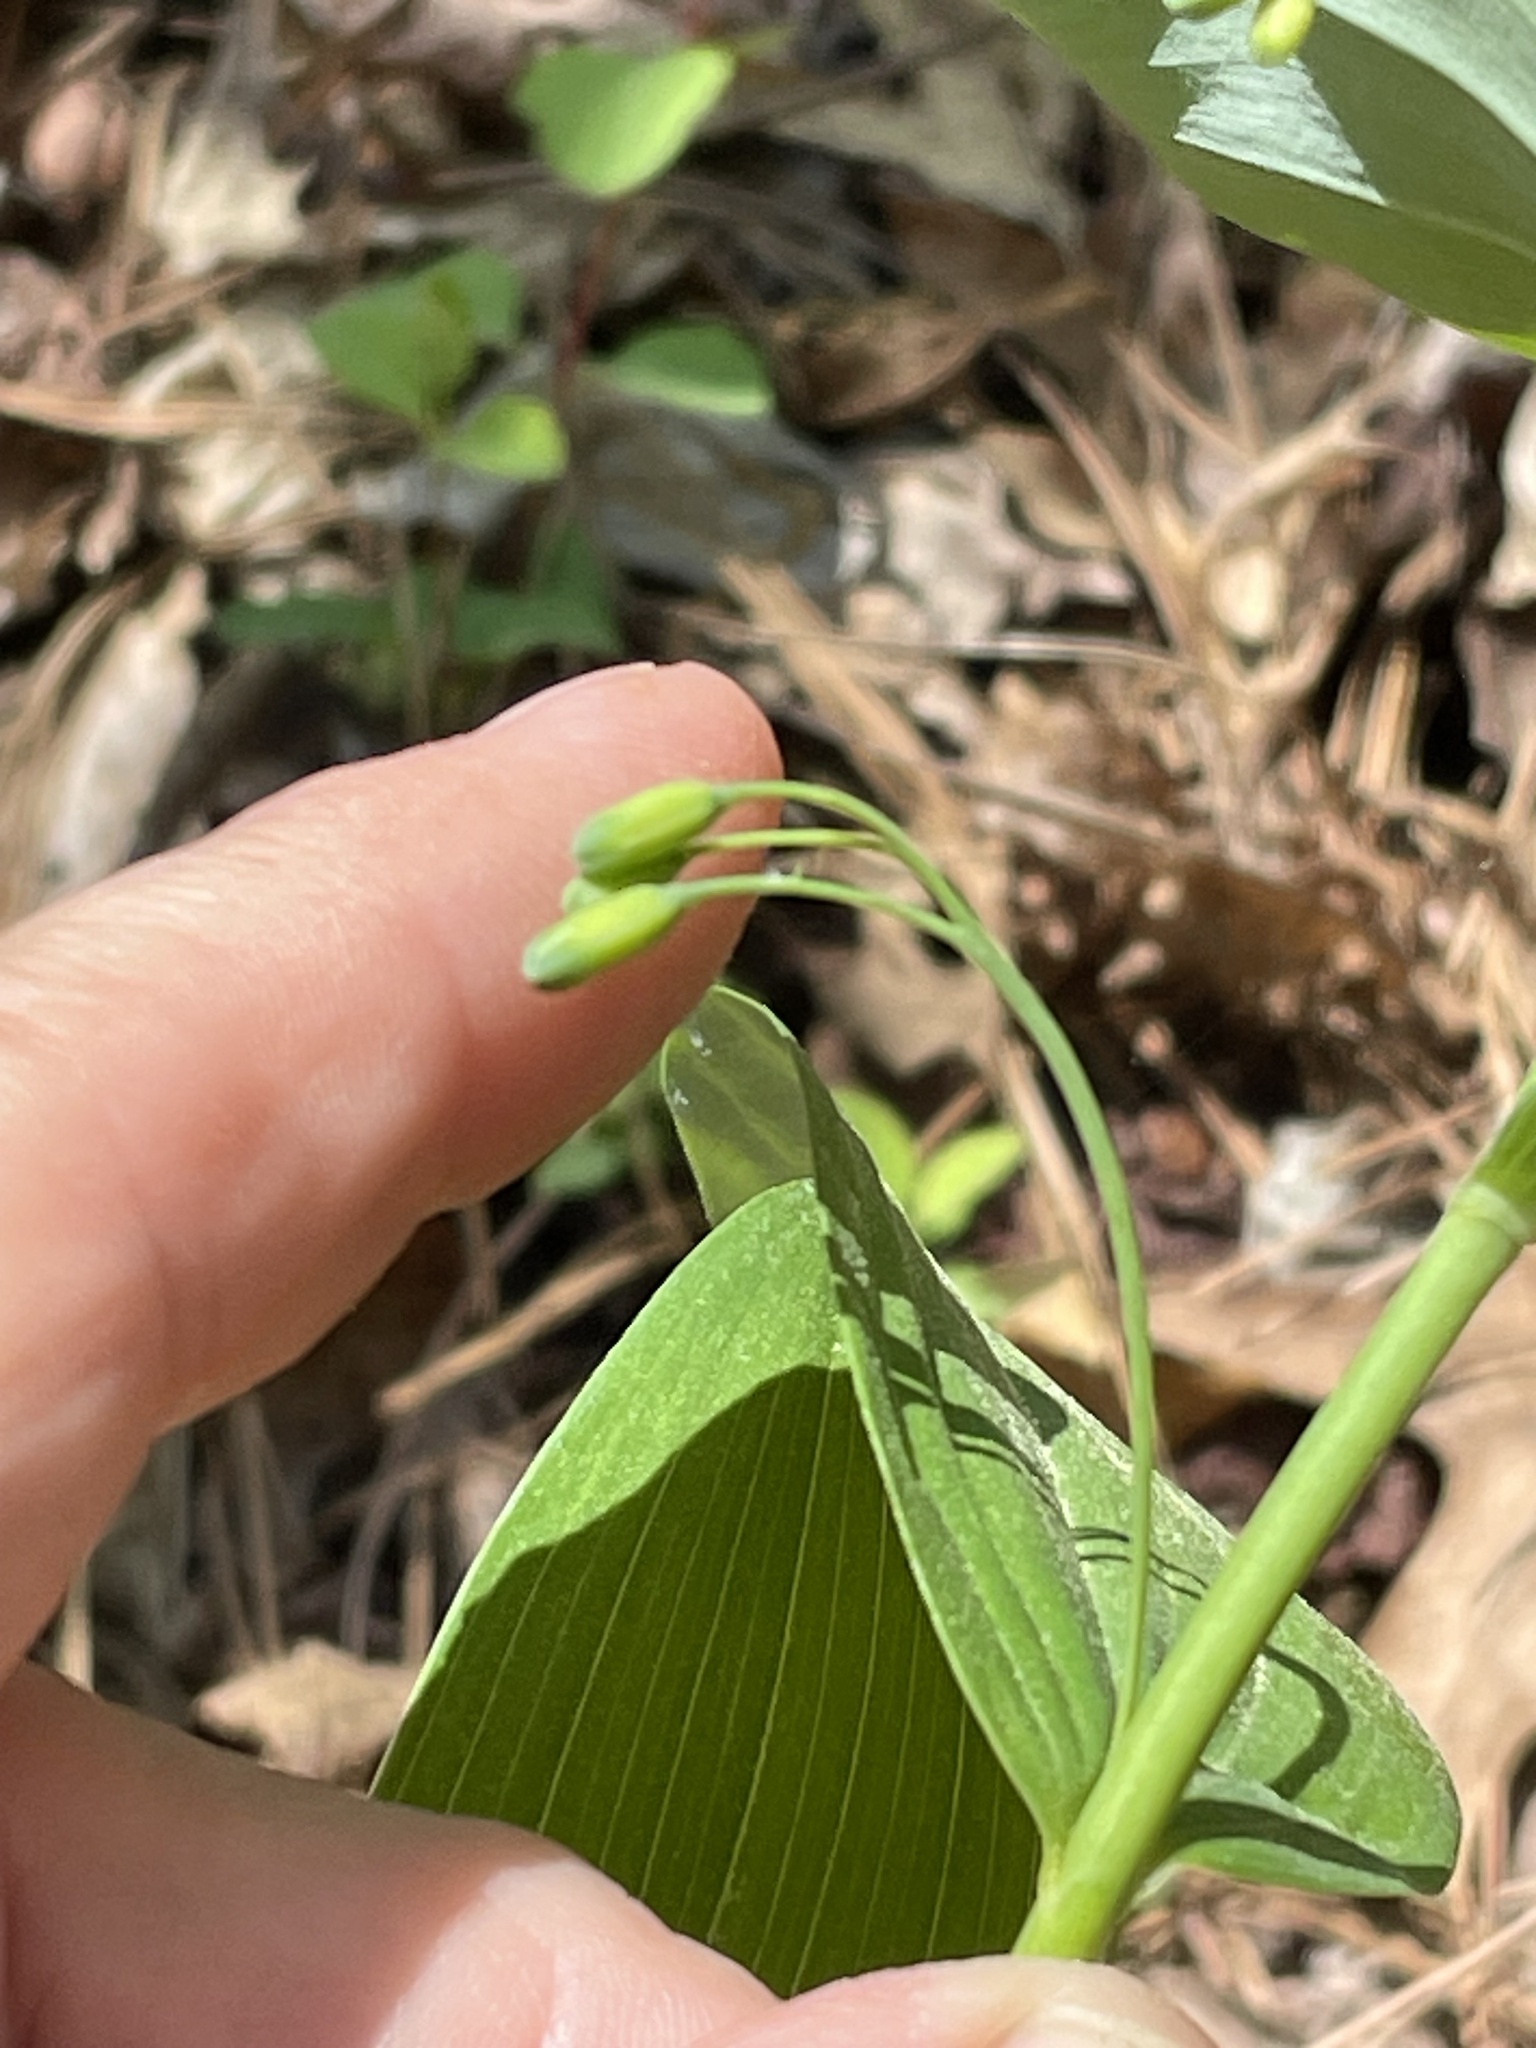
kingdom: Plantae
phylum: Tracheophyta
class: Liliopsida
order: Asparagales
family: Asparagaceae
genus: Polygonatum
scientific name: Polygonatum biflorum
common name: American solomon's-seal
